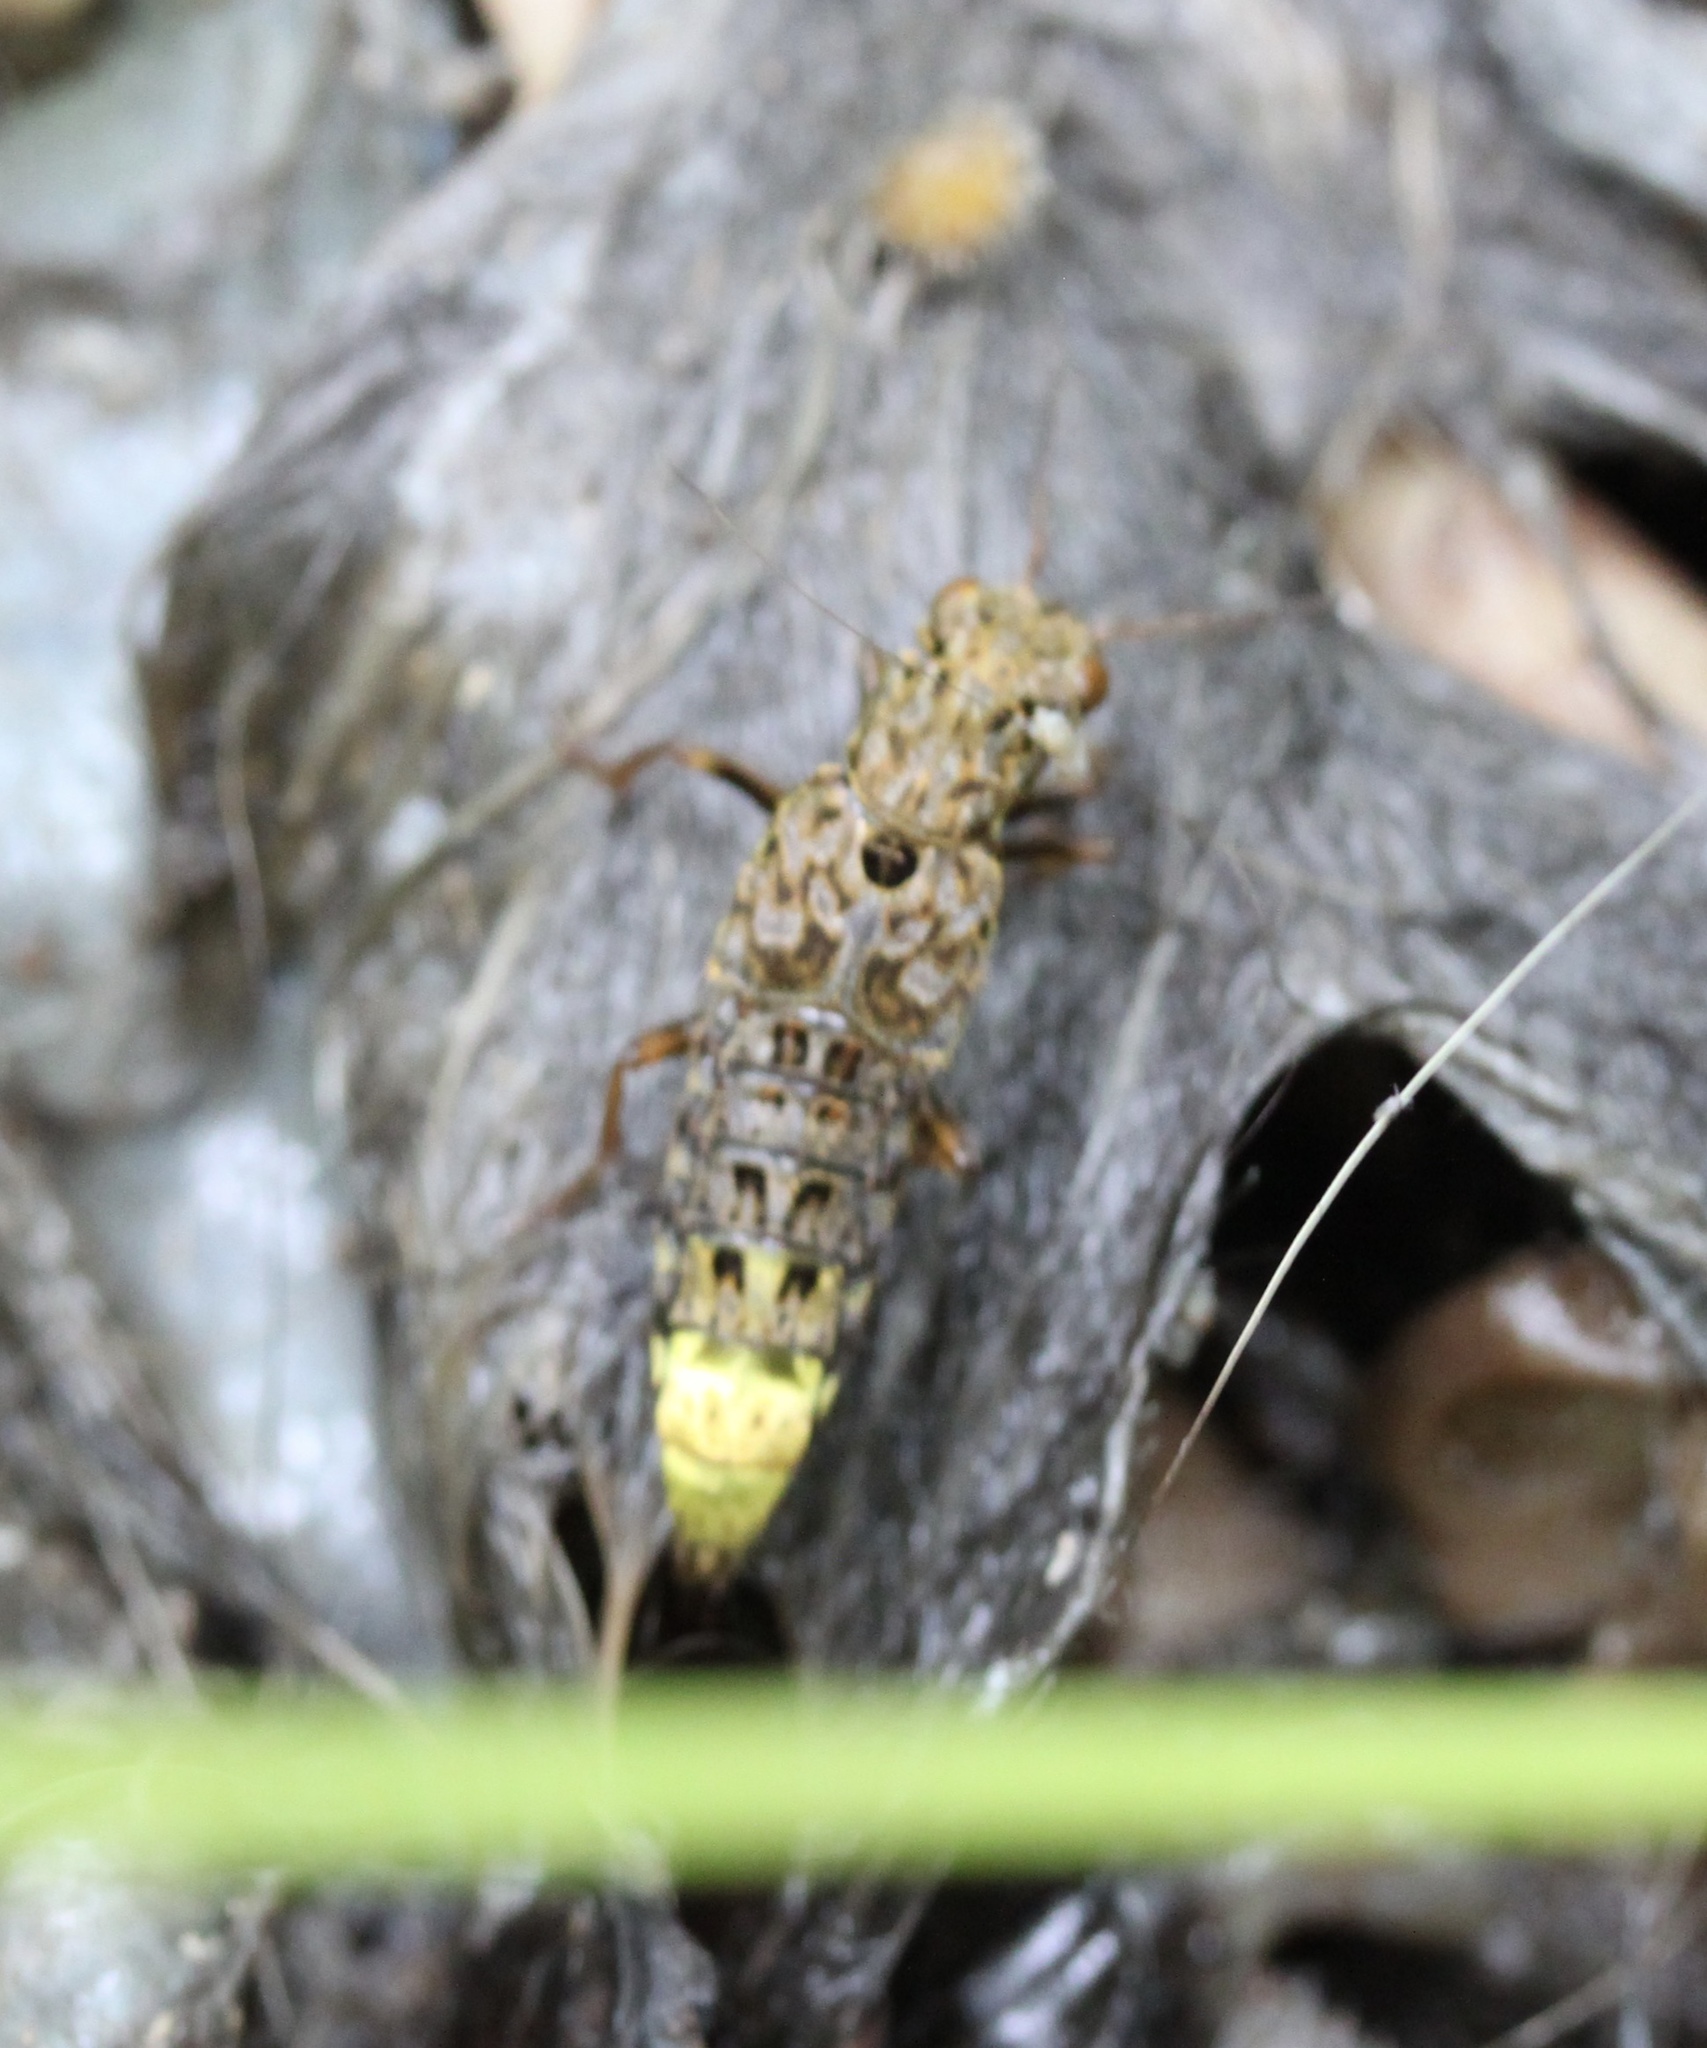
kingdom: Animalia
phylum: Arthropoda
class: Insecta
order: Coleoptera
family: Staphylinidae
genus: Ontholestes
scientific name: Ontholestes cingulatus
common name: Gold-and-brown rove beetle
